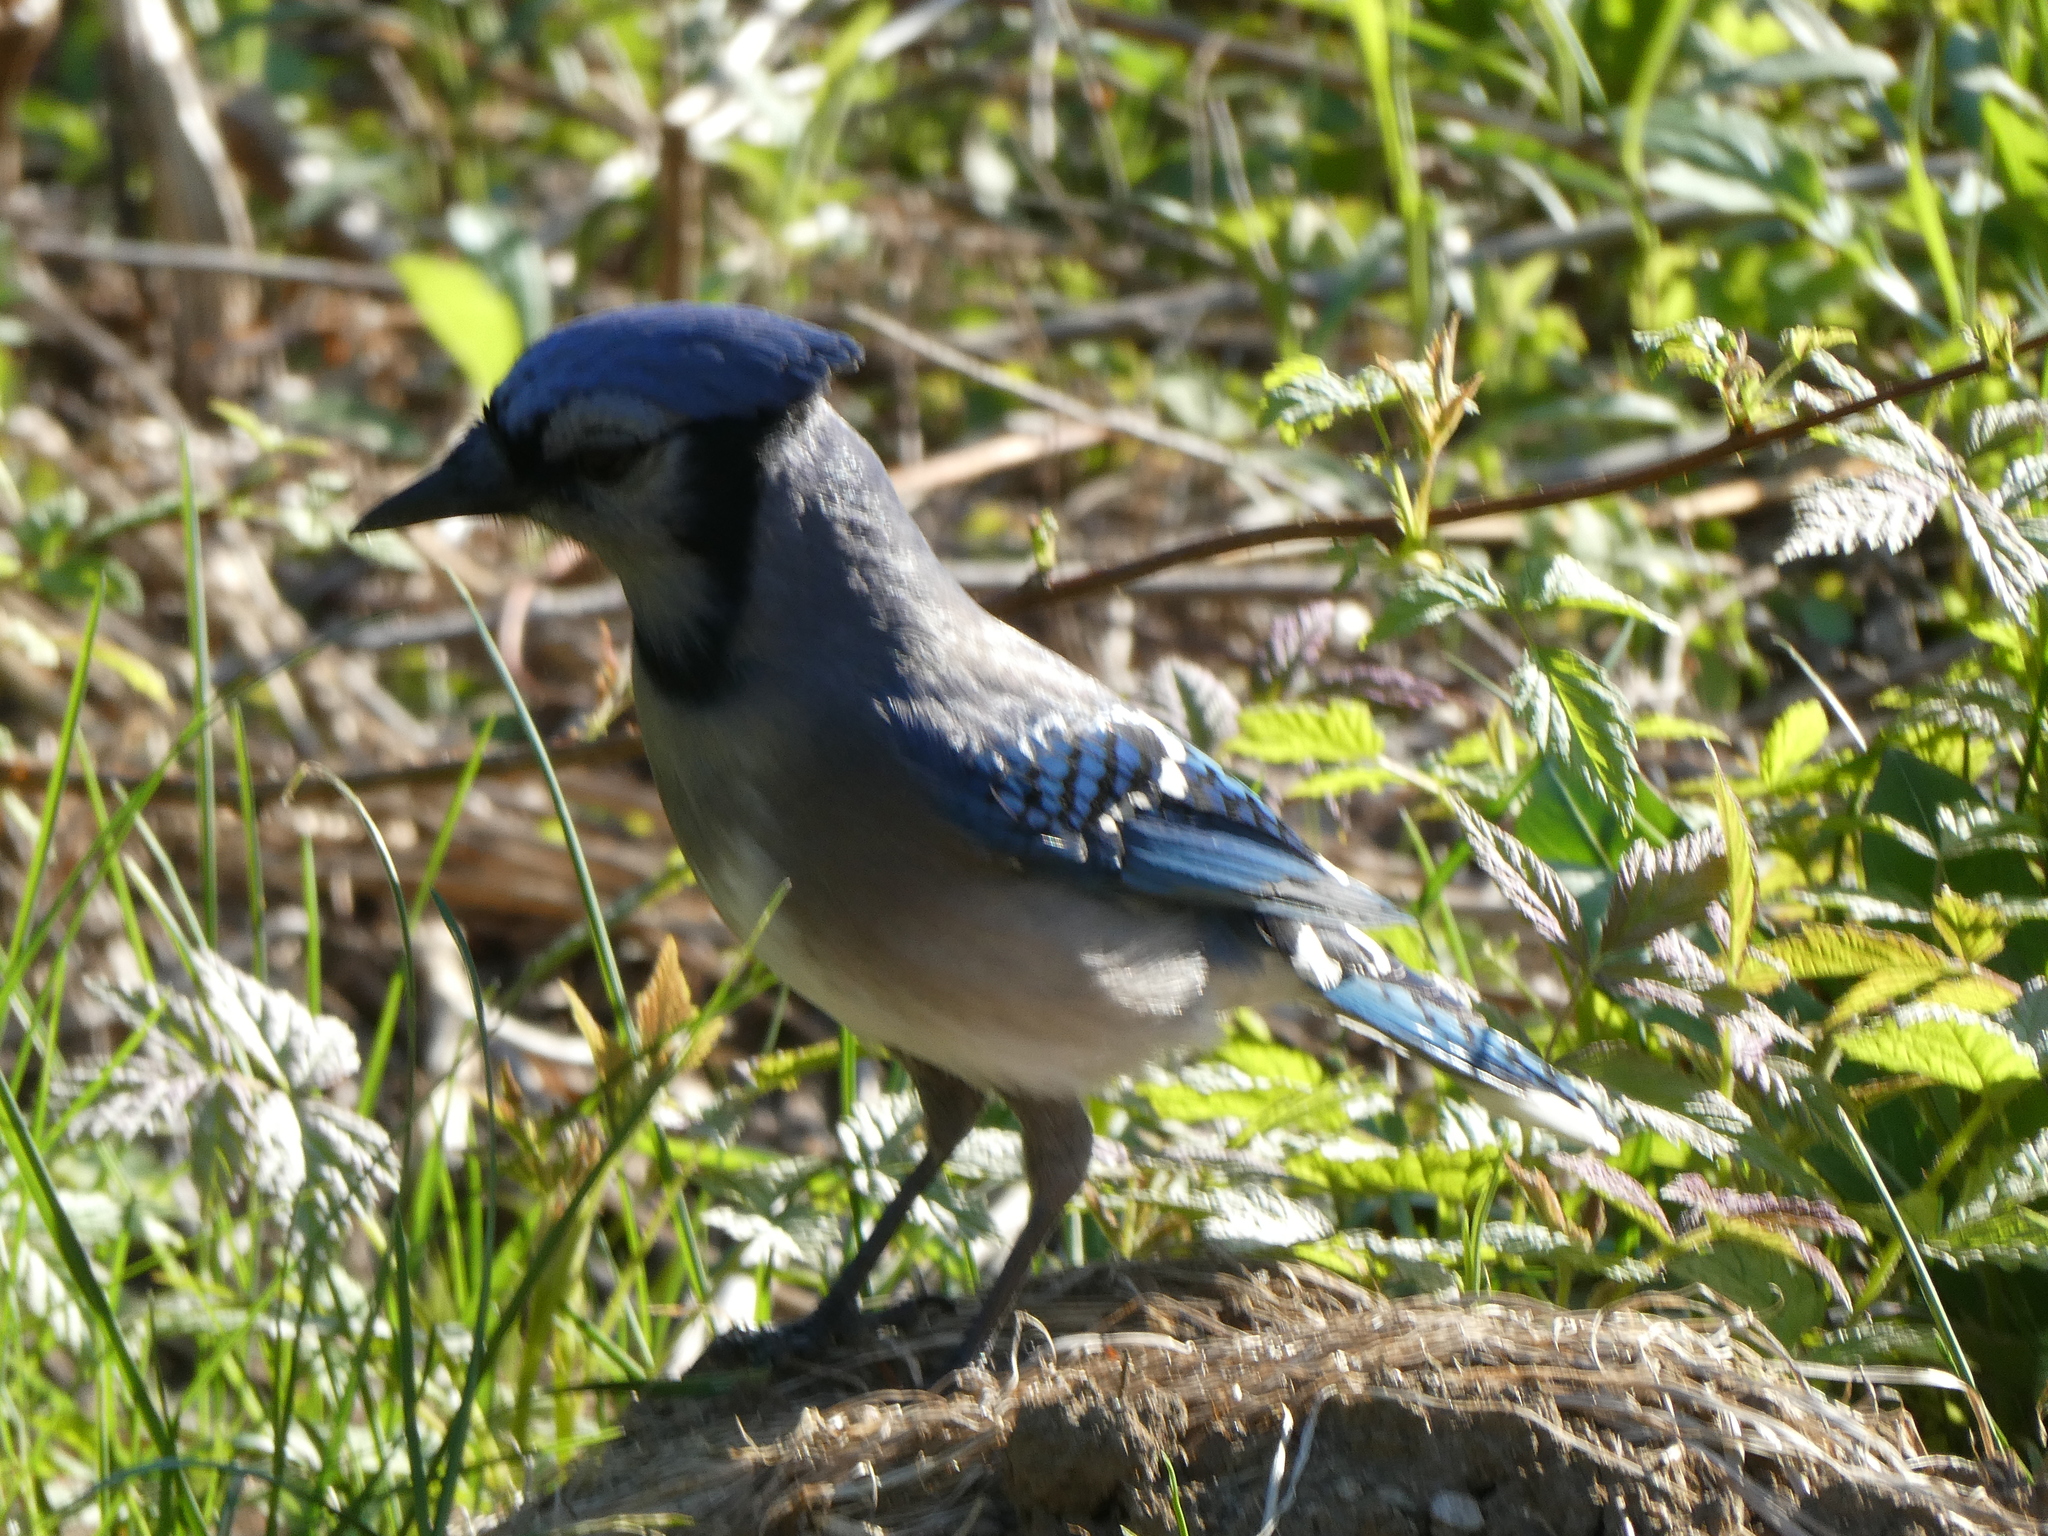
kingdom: Animalia
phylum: Chordata
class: Aves
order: Passeriformes
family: Corvidae
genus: Cyanocitta
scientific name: Cyanocitta cristata
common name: Blue jay
